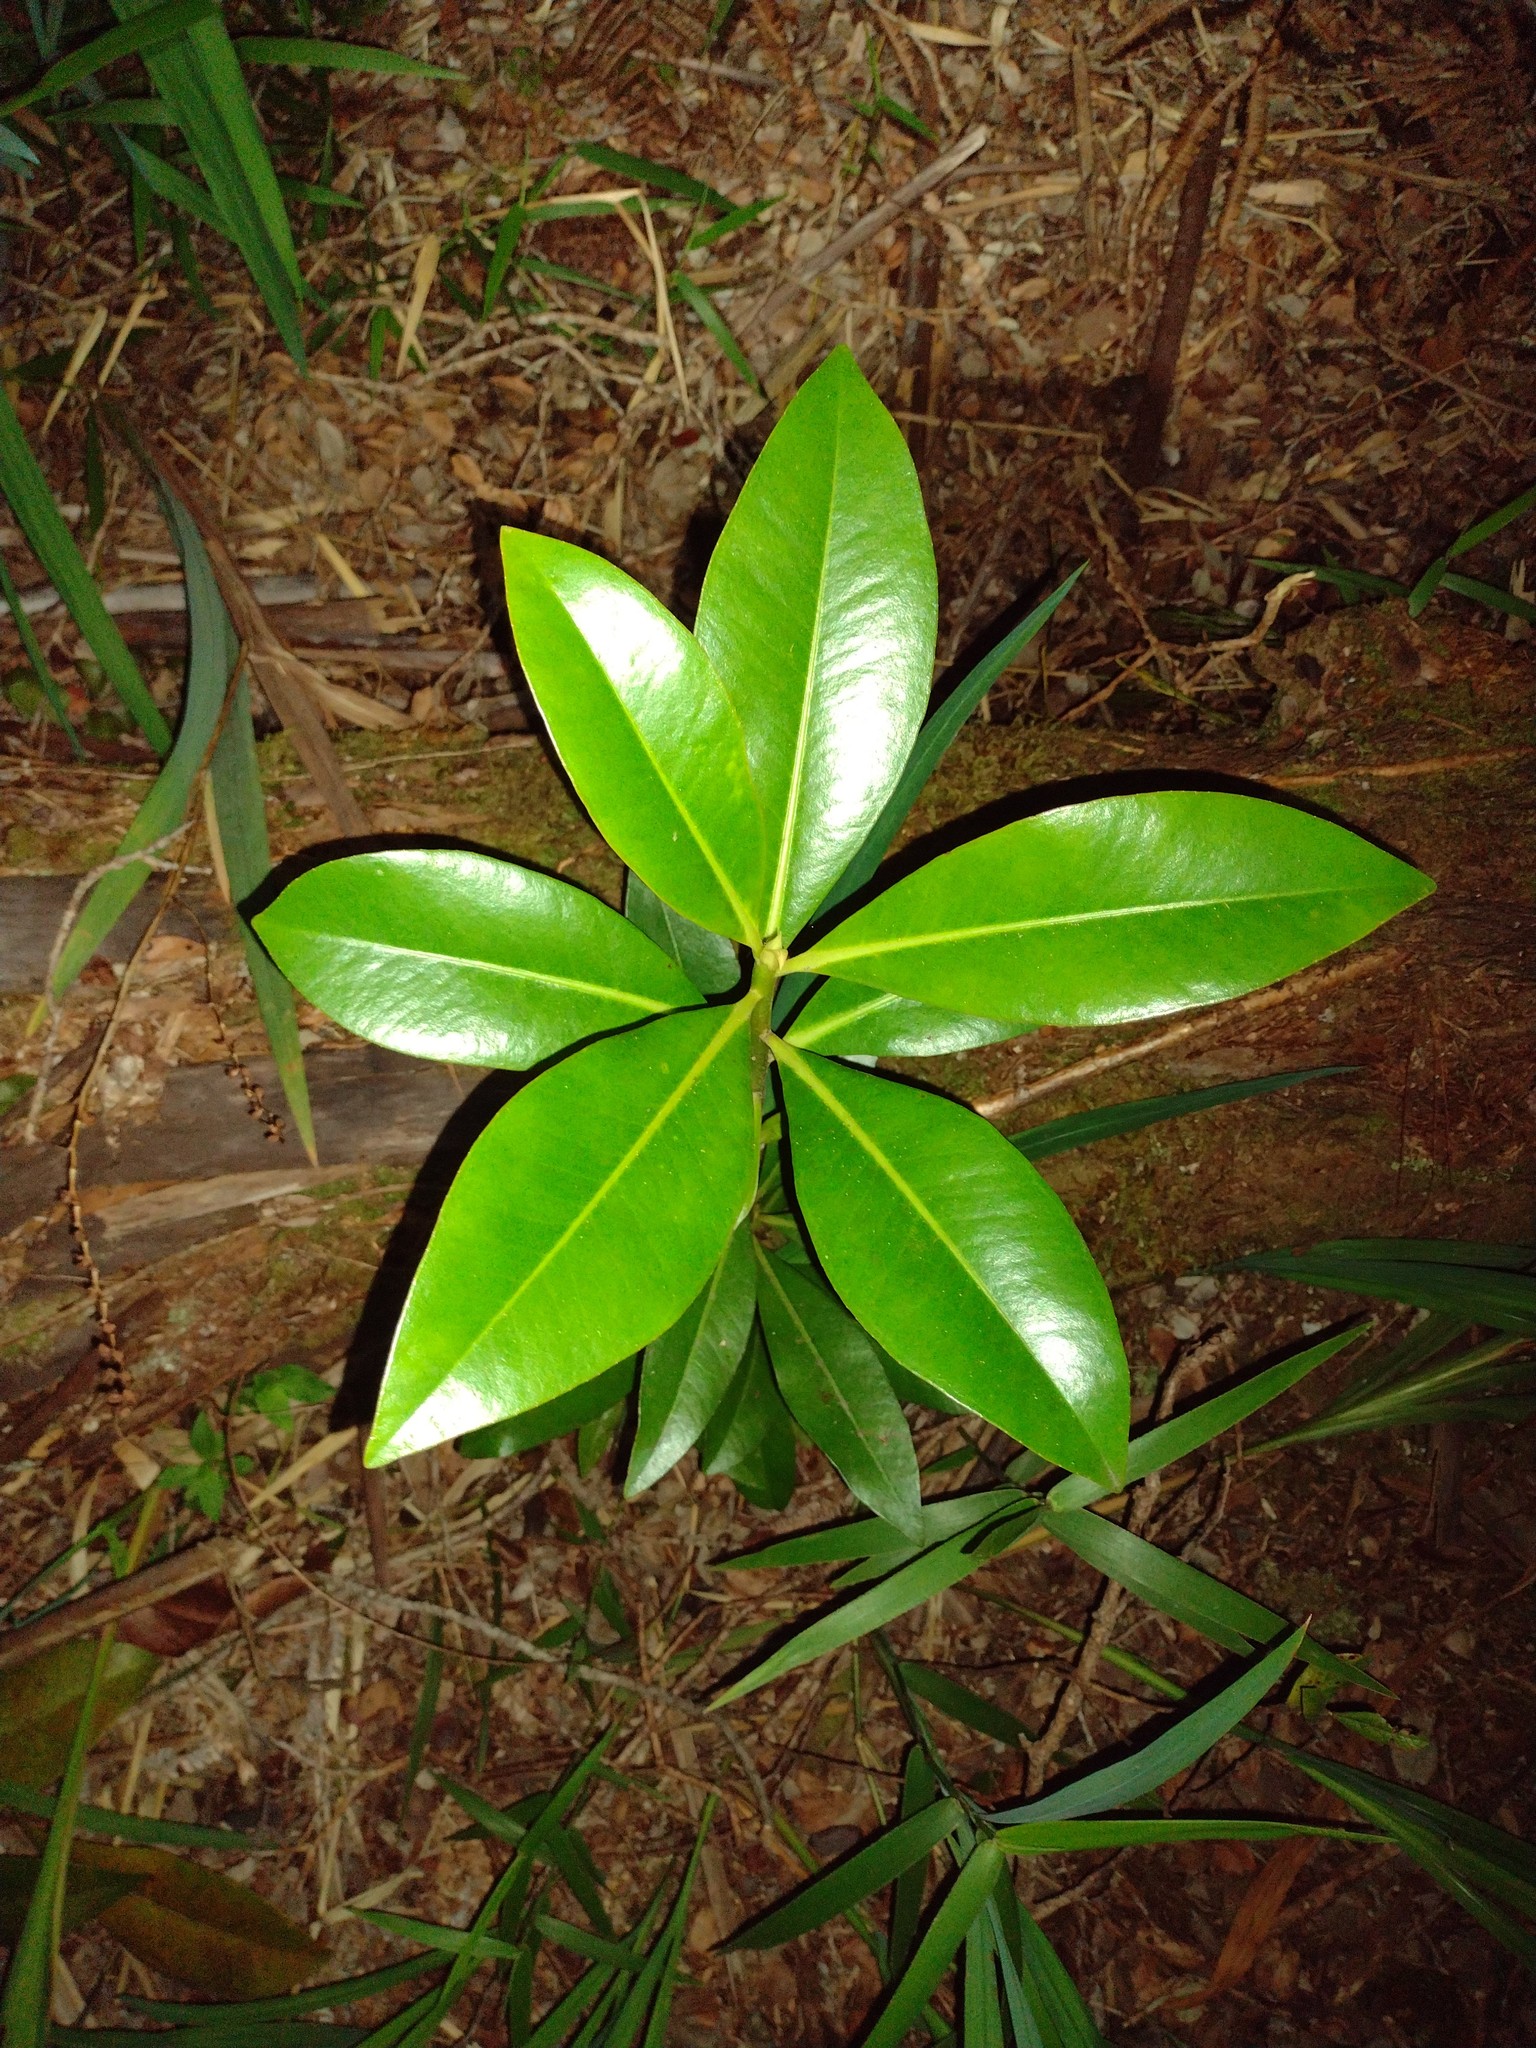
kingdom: Plantae
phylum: Tracheophyta
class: Magnoliopsida
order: Ericales
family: Primulaceae
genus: Myrsine
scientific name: Myrsine lessertiana
